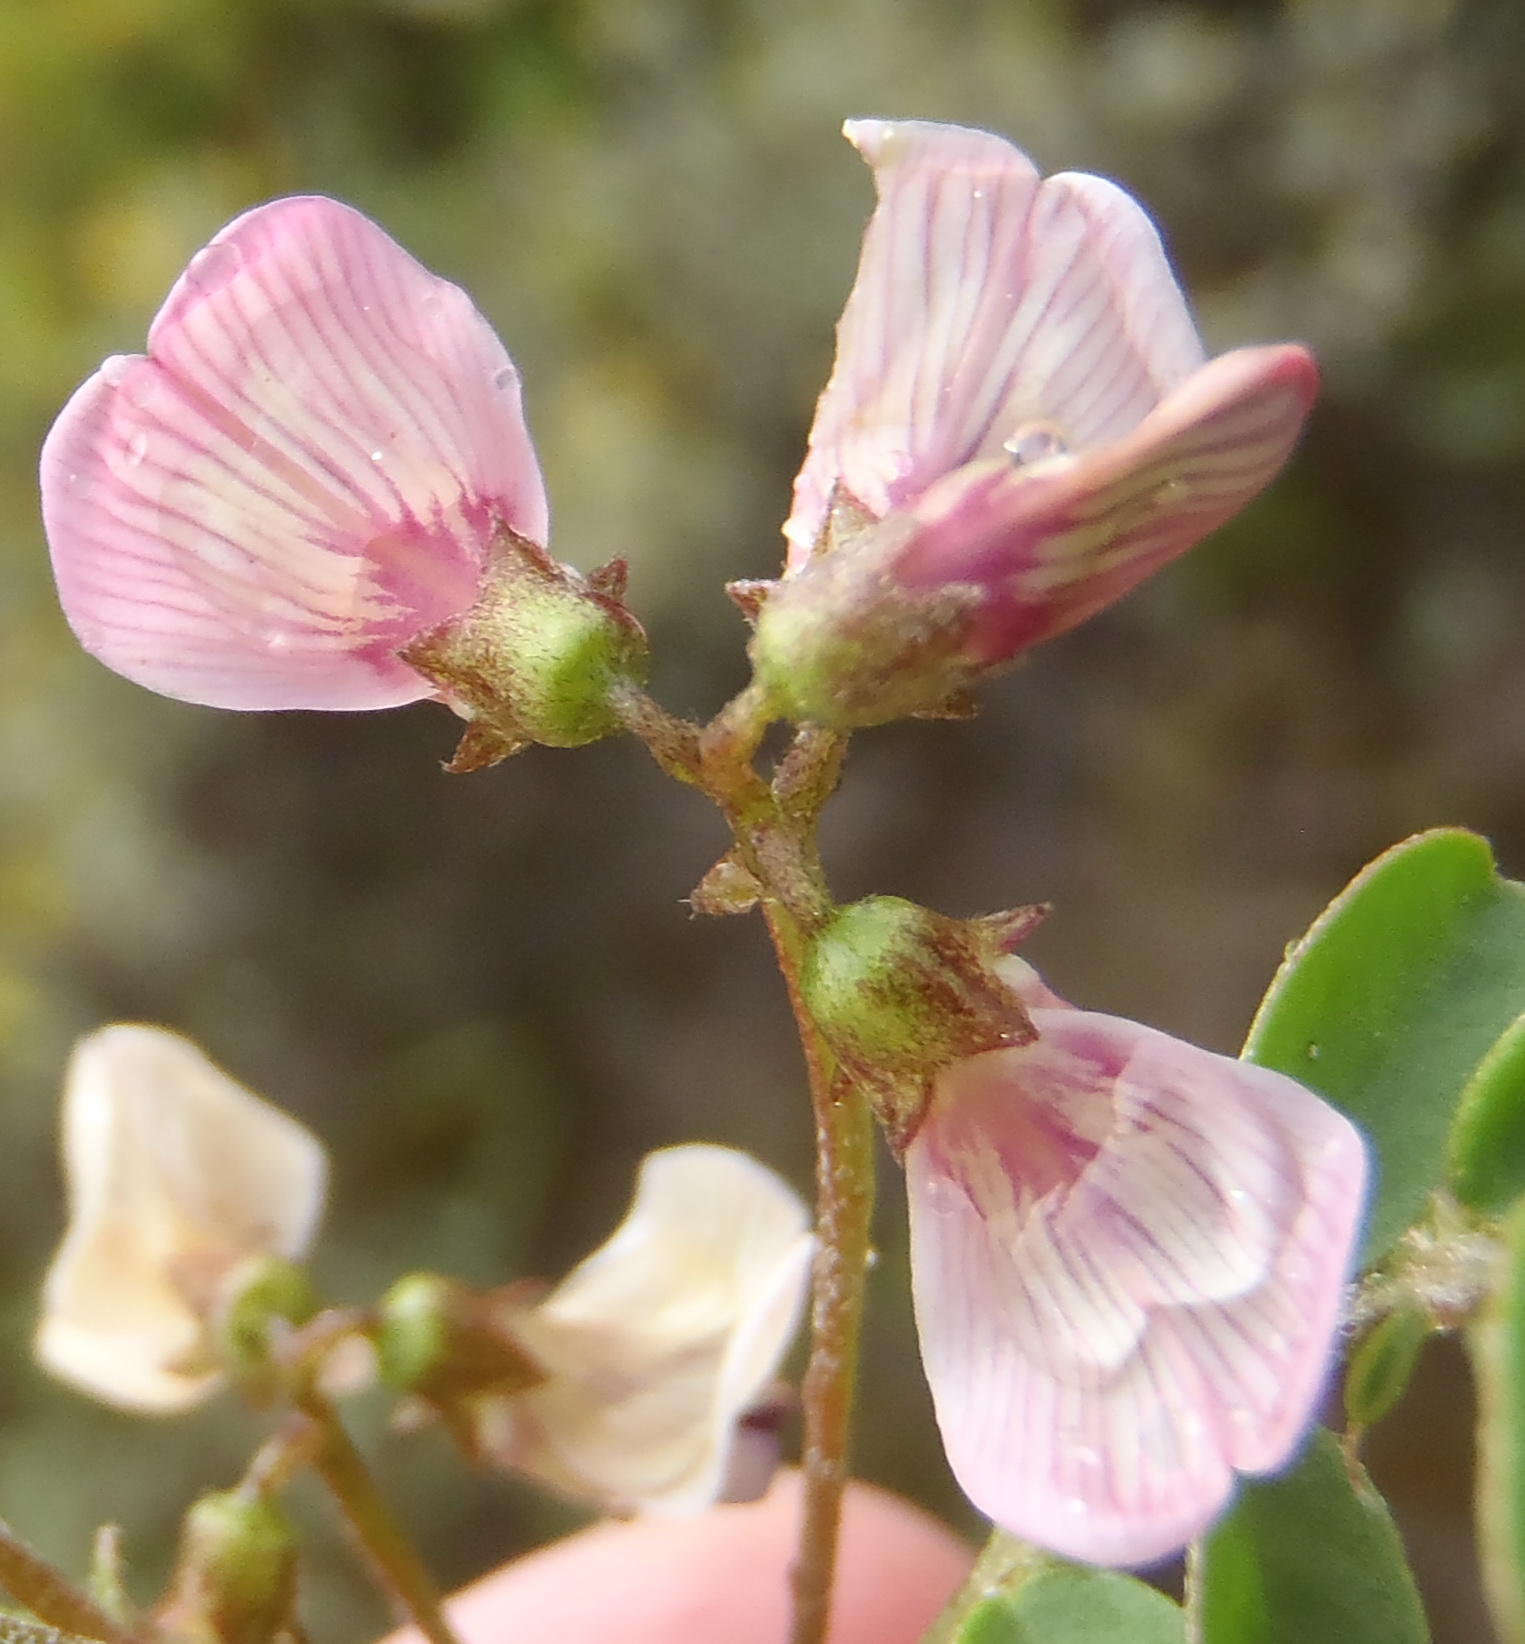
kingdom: Plantae
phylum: Tracheophyta
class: Magnoliopsida
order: Fabales
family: Fabaceae
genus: Lessertia
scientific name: Lessertia annularis
